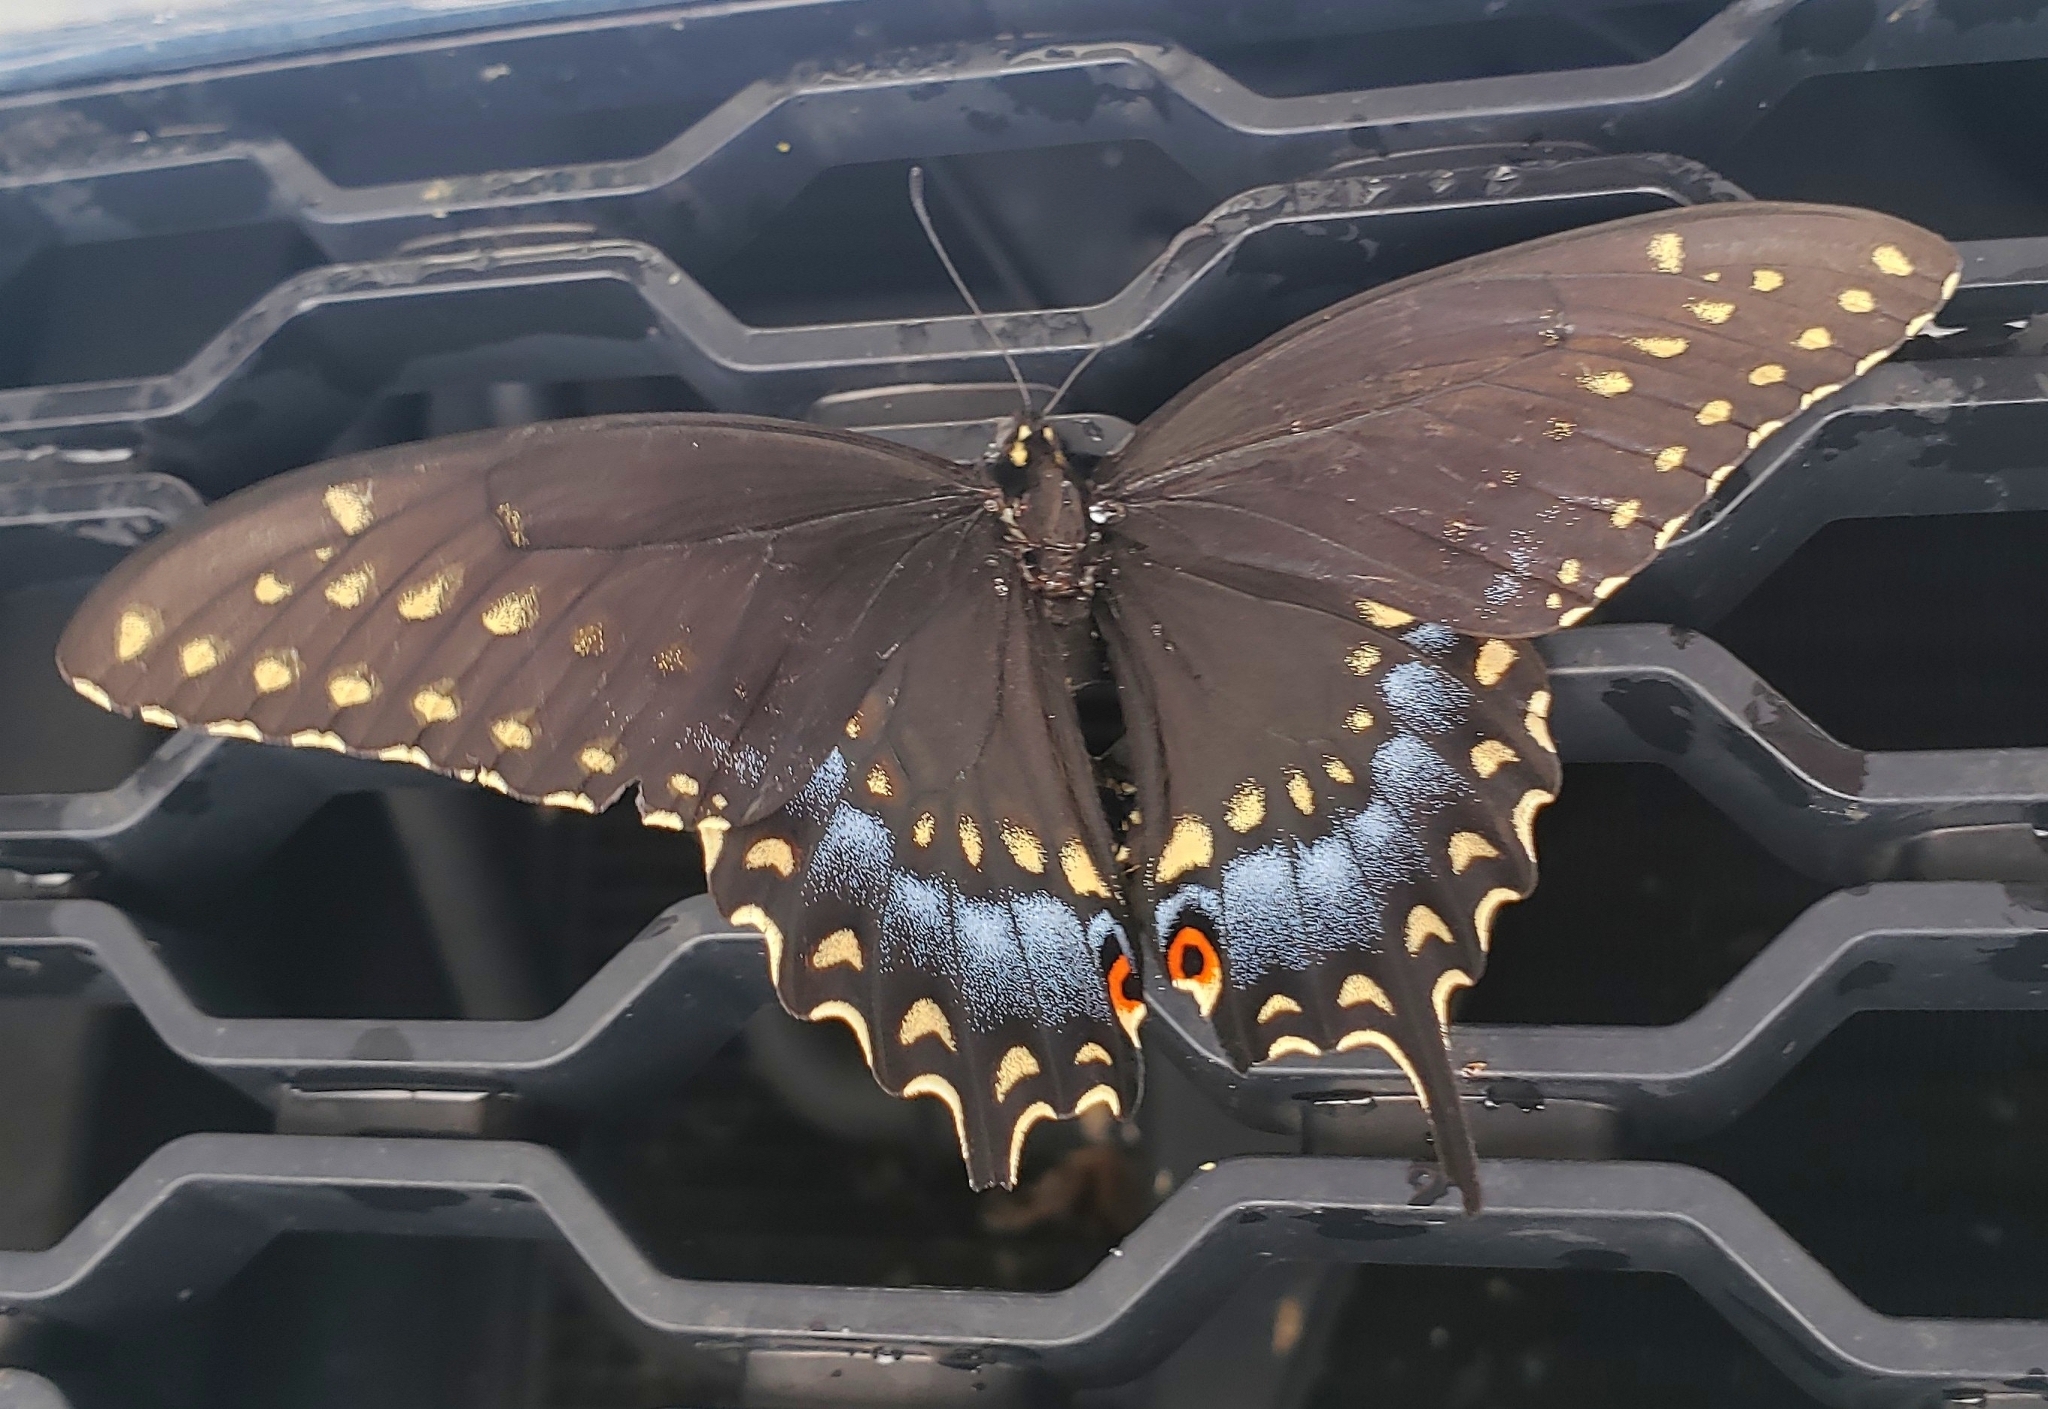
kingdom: Animalia
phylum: Arthropoda
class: Insecta
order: Lepidoptera
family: Papilionidae
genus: Papilio
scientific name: Papilio polyxenes
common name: Black swallowtail
